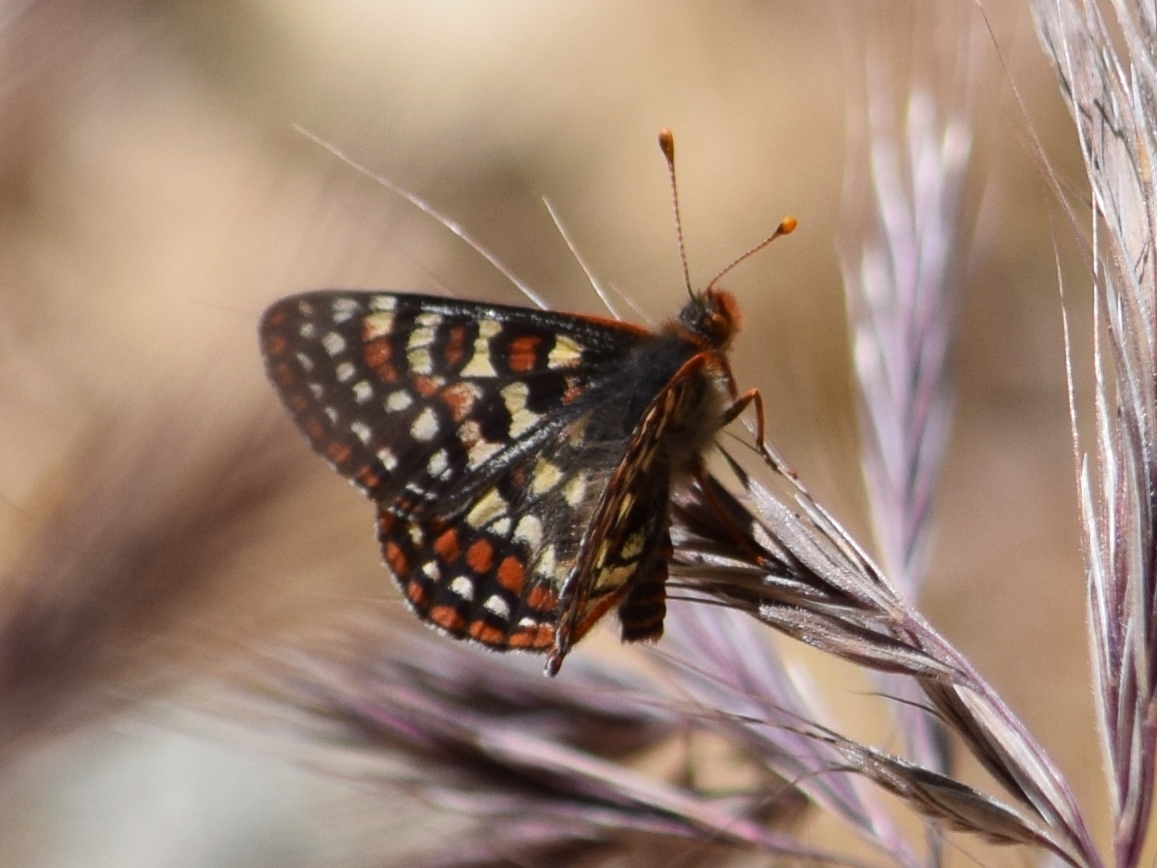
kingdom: Animalia
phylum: Arthropoda
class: Insecta
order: Lepidoptera
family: Nymphalidae
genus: Occidryas
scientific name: Occidryas editha
